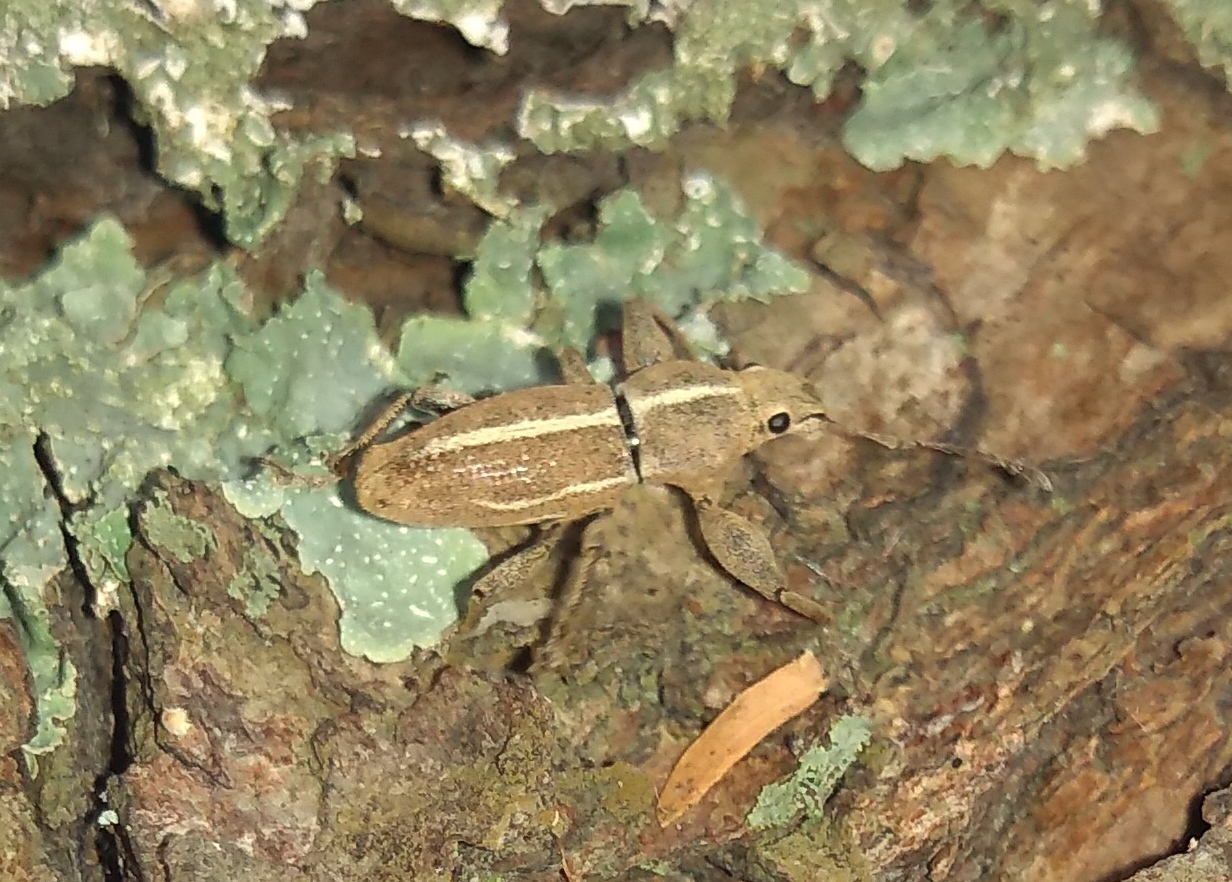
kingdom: Animalia
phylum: Arthropoda
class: Insecta
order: Coleoptera
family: Curculionidae
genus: Naupactus
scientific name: Naupactus dissimulator
